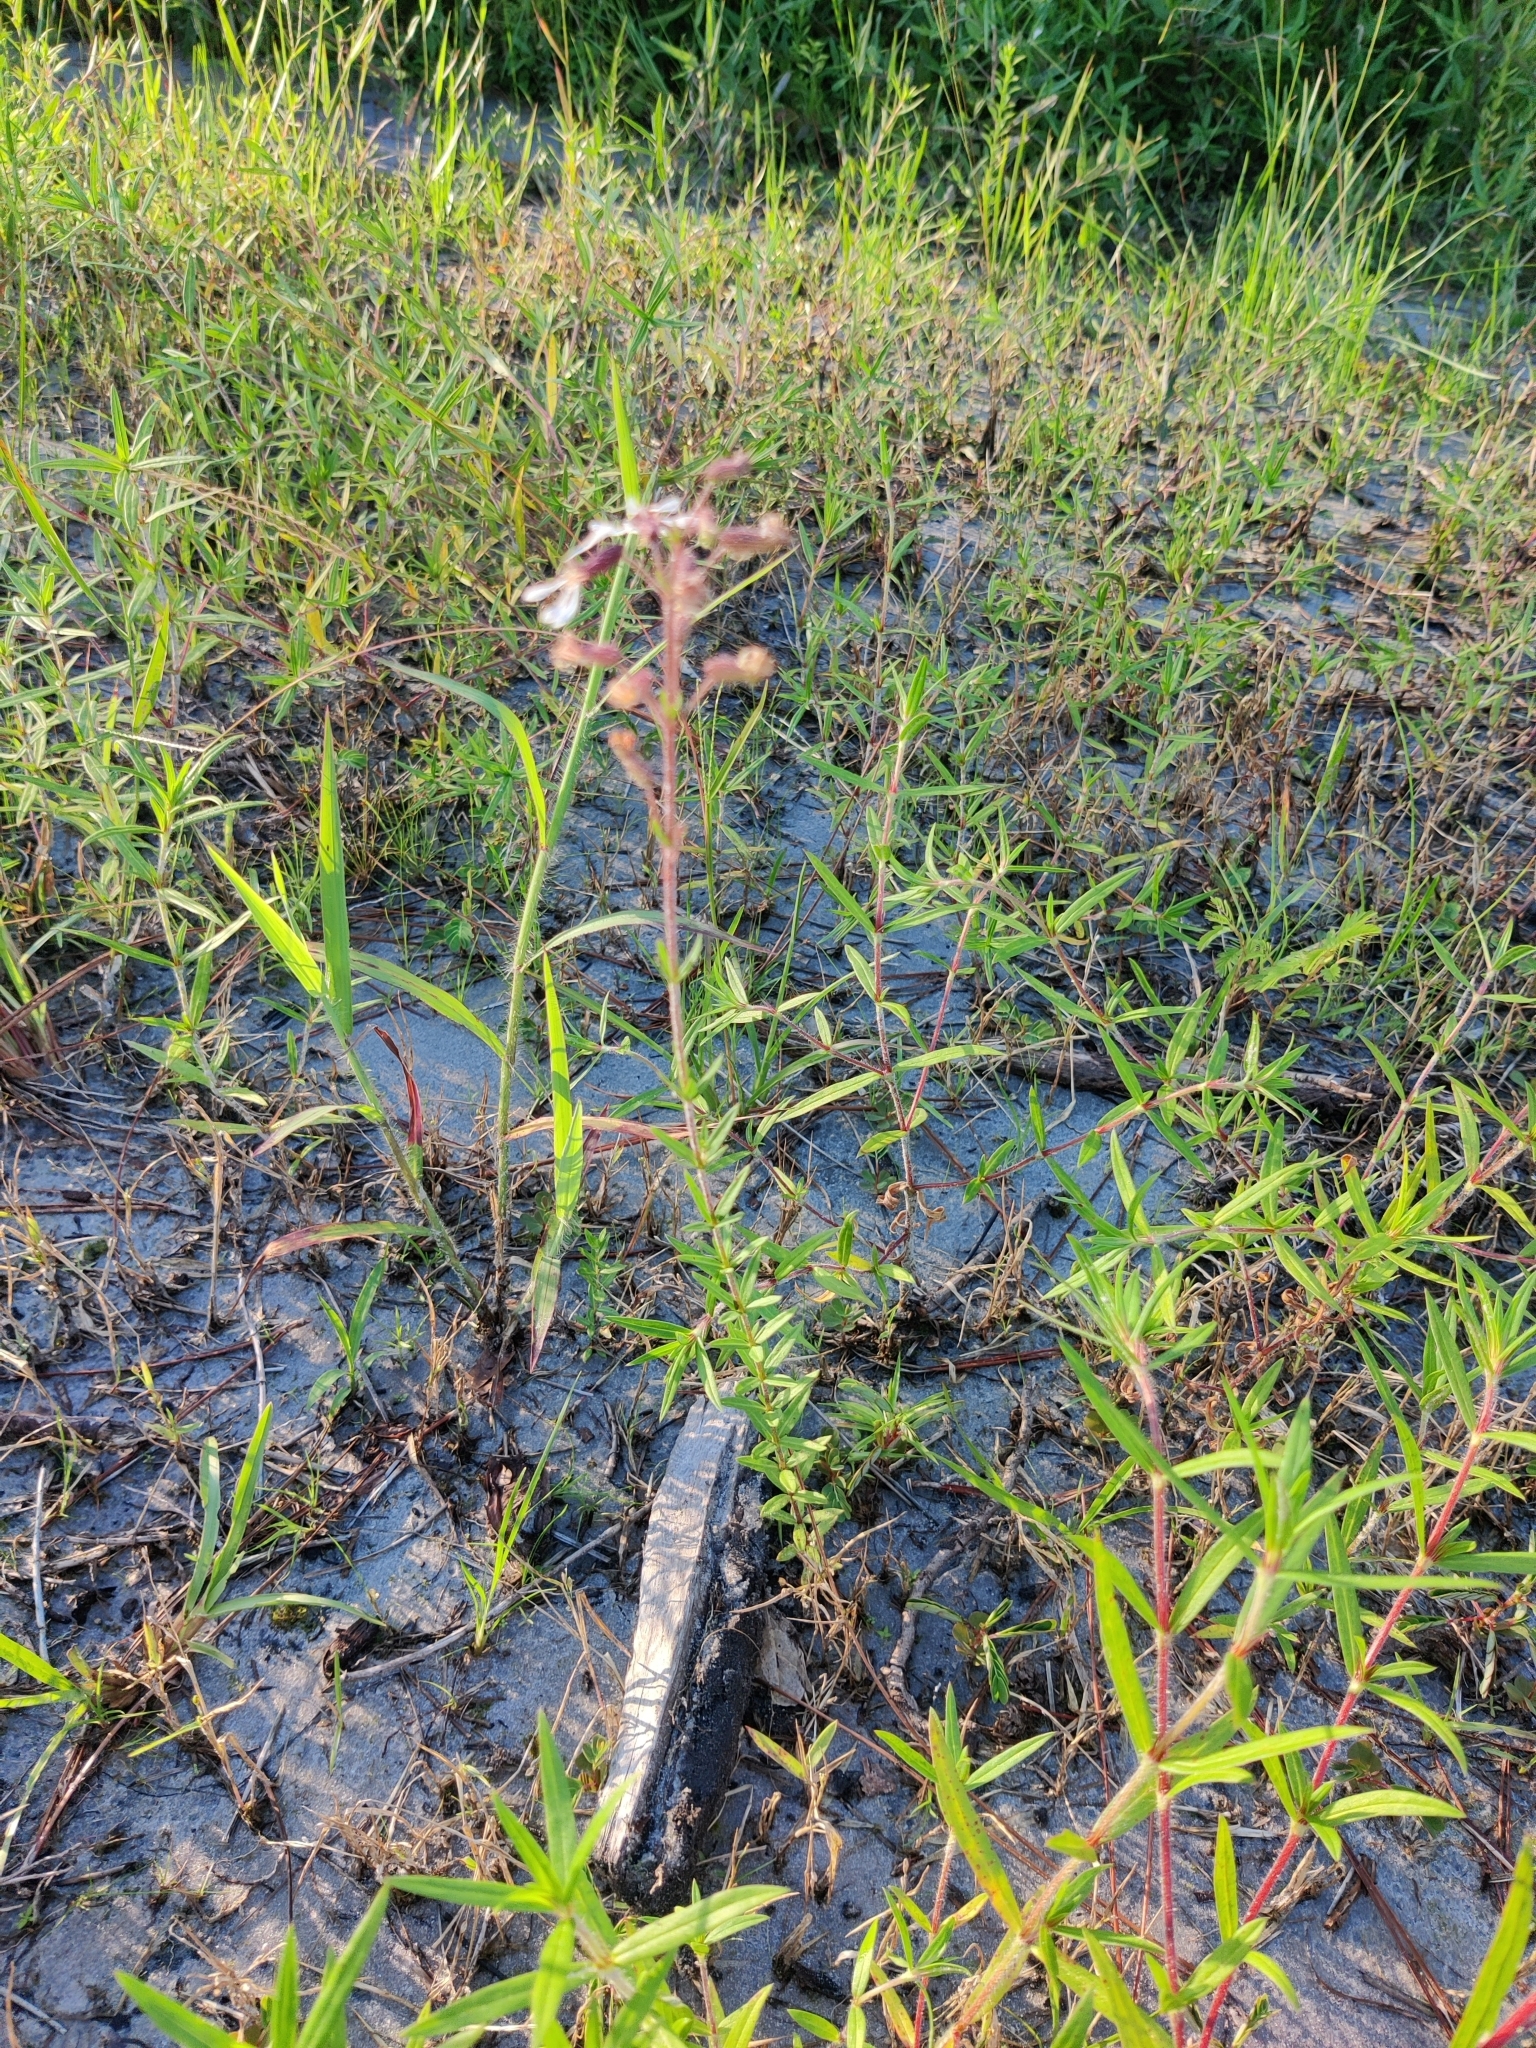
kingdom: Plantae
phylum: Tracheophyta
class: Magnoliopsida
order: Myrtales
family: Lythraceae
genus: Cuphea
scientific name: Cuphea aspera
